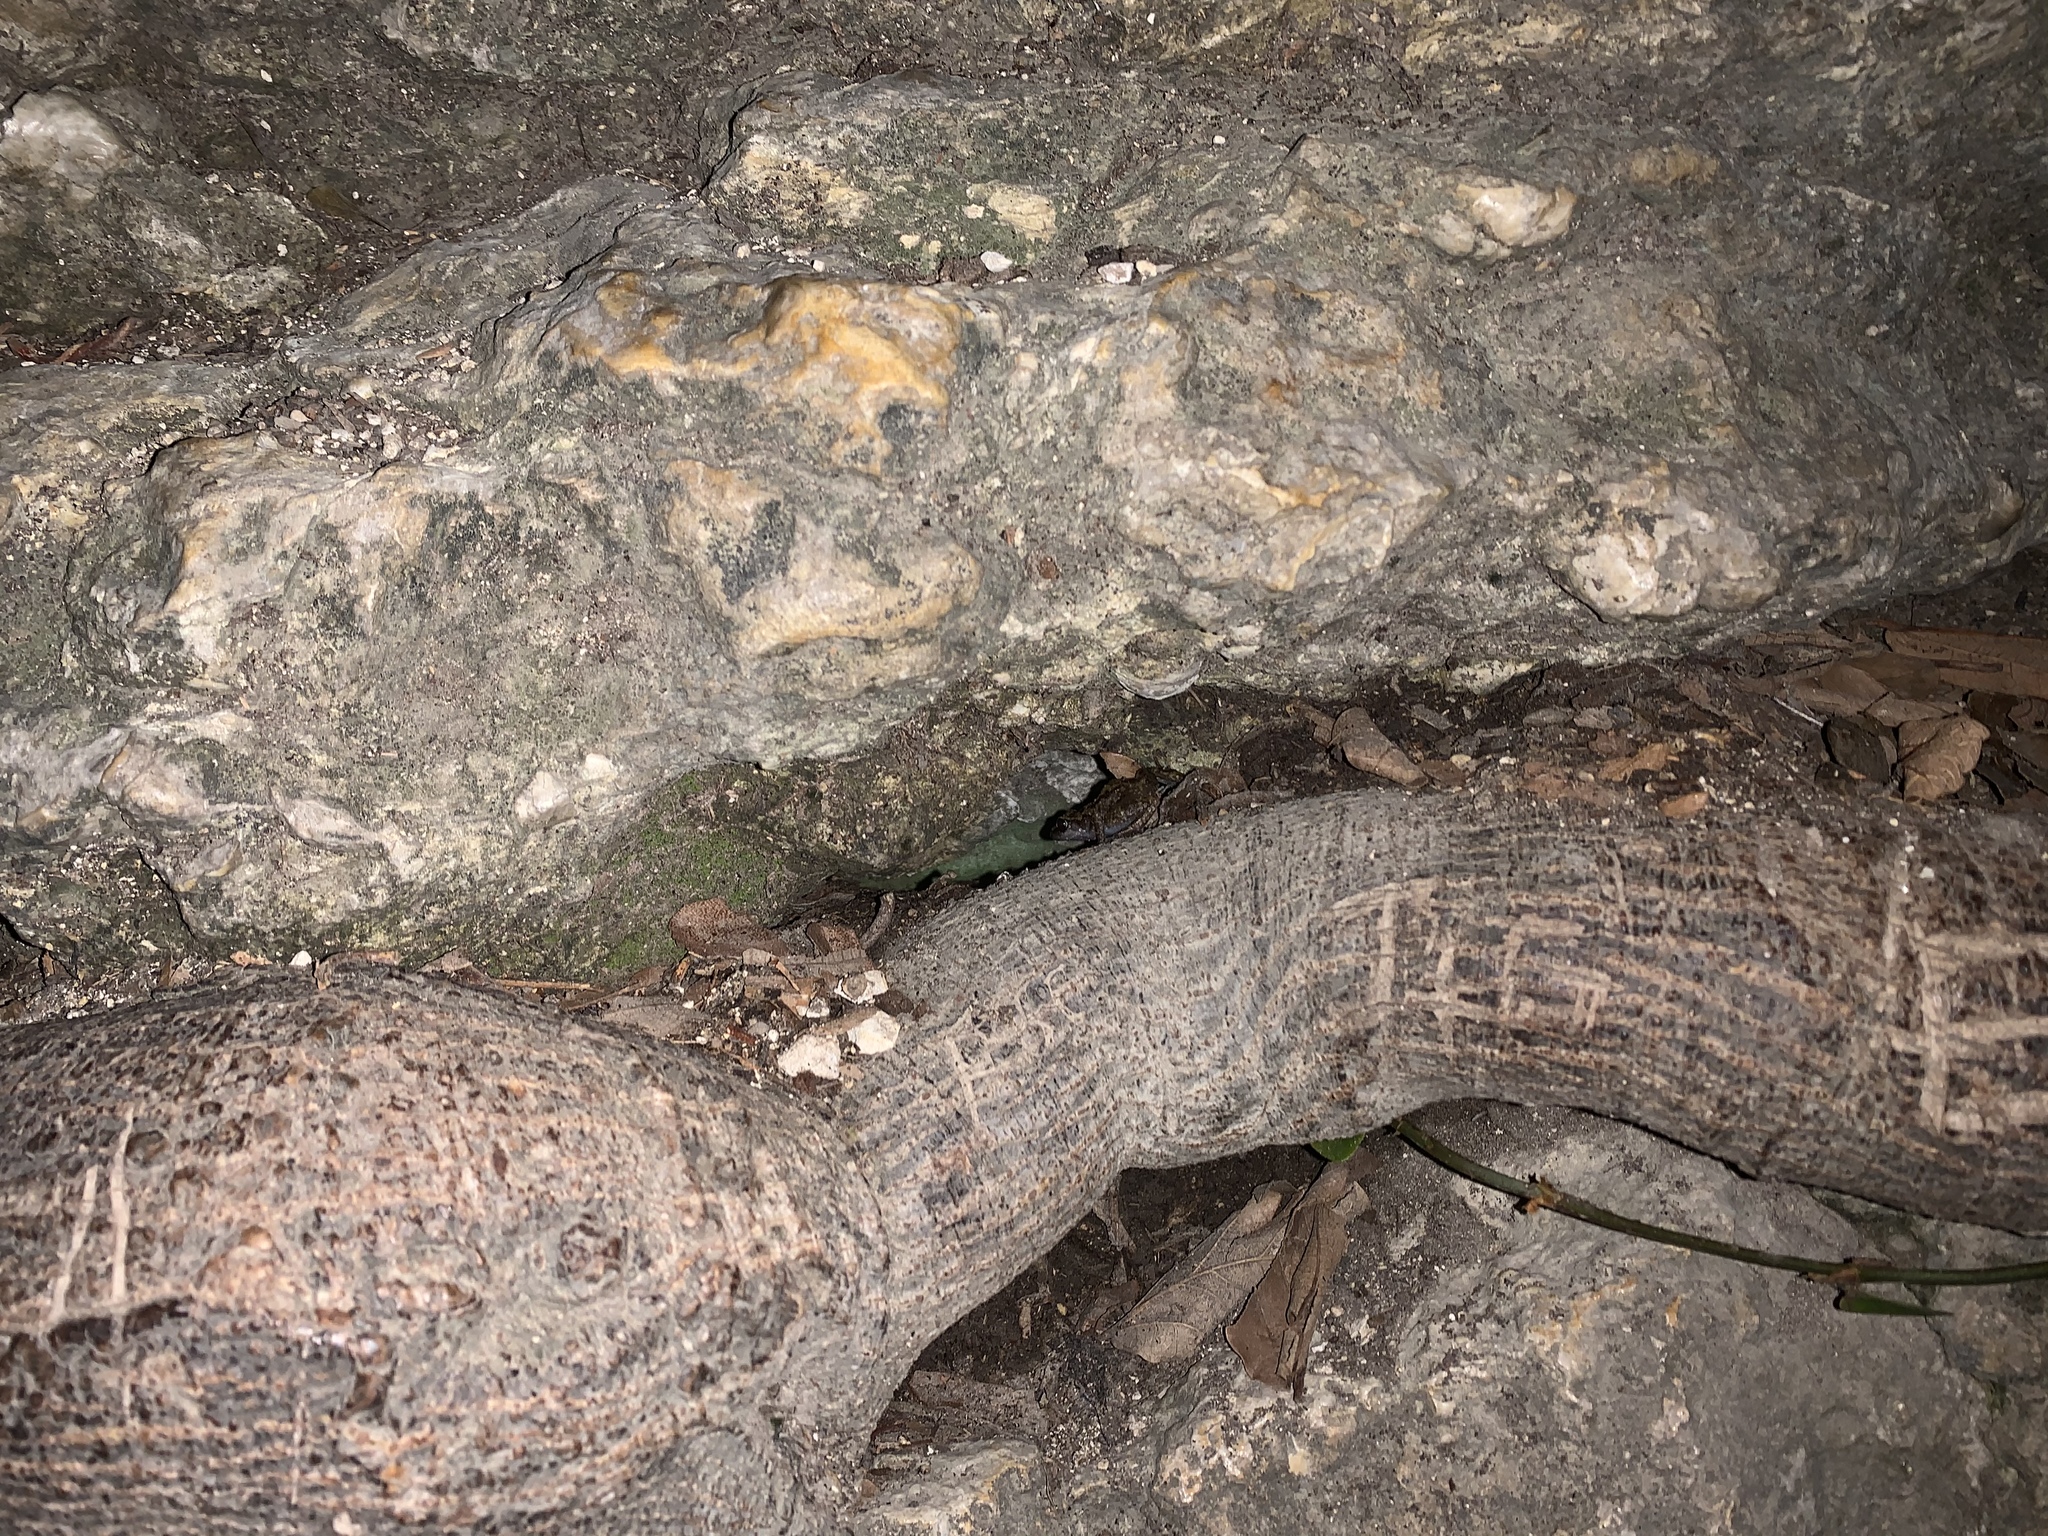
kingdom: Animalia
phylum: Chordata
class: Amphibia
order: Anura
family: Eleutherodactylidae
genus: Eleutherodactylus
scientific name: Eleutherodactylus campi
